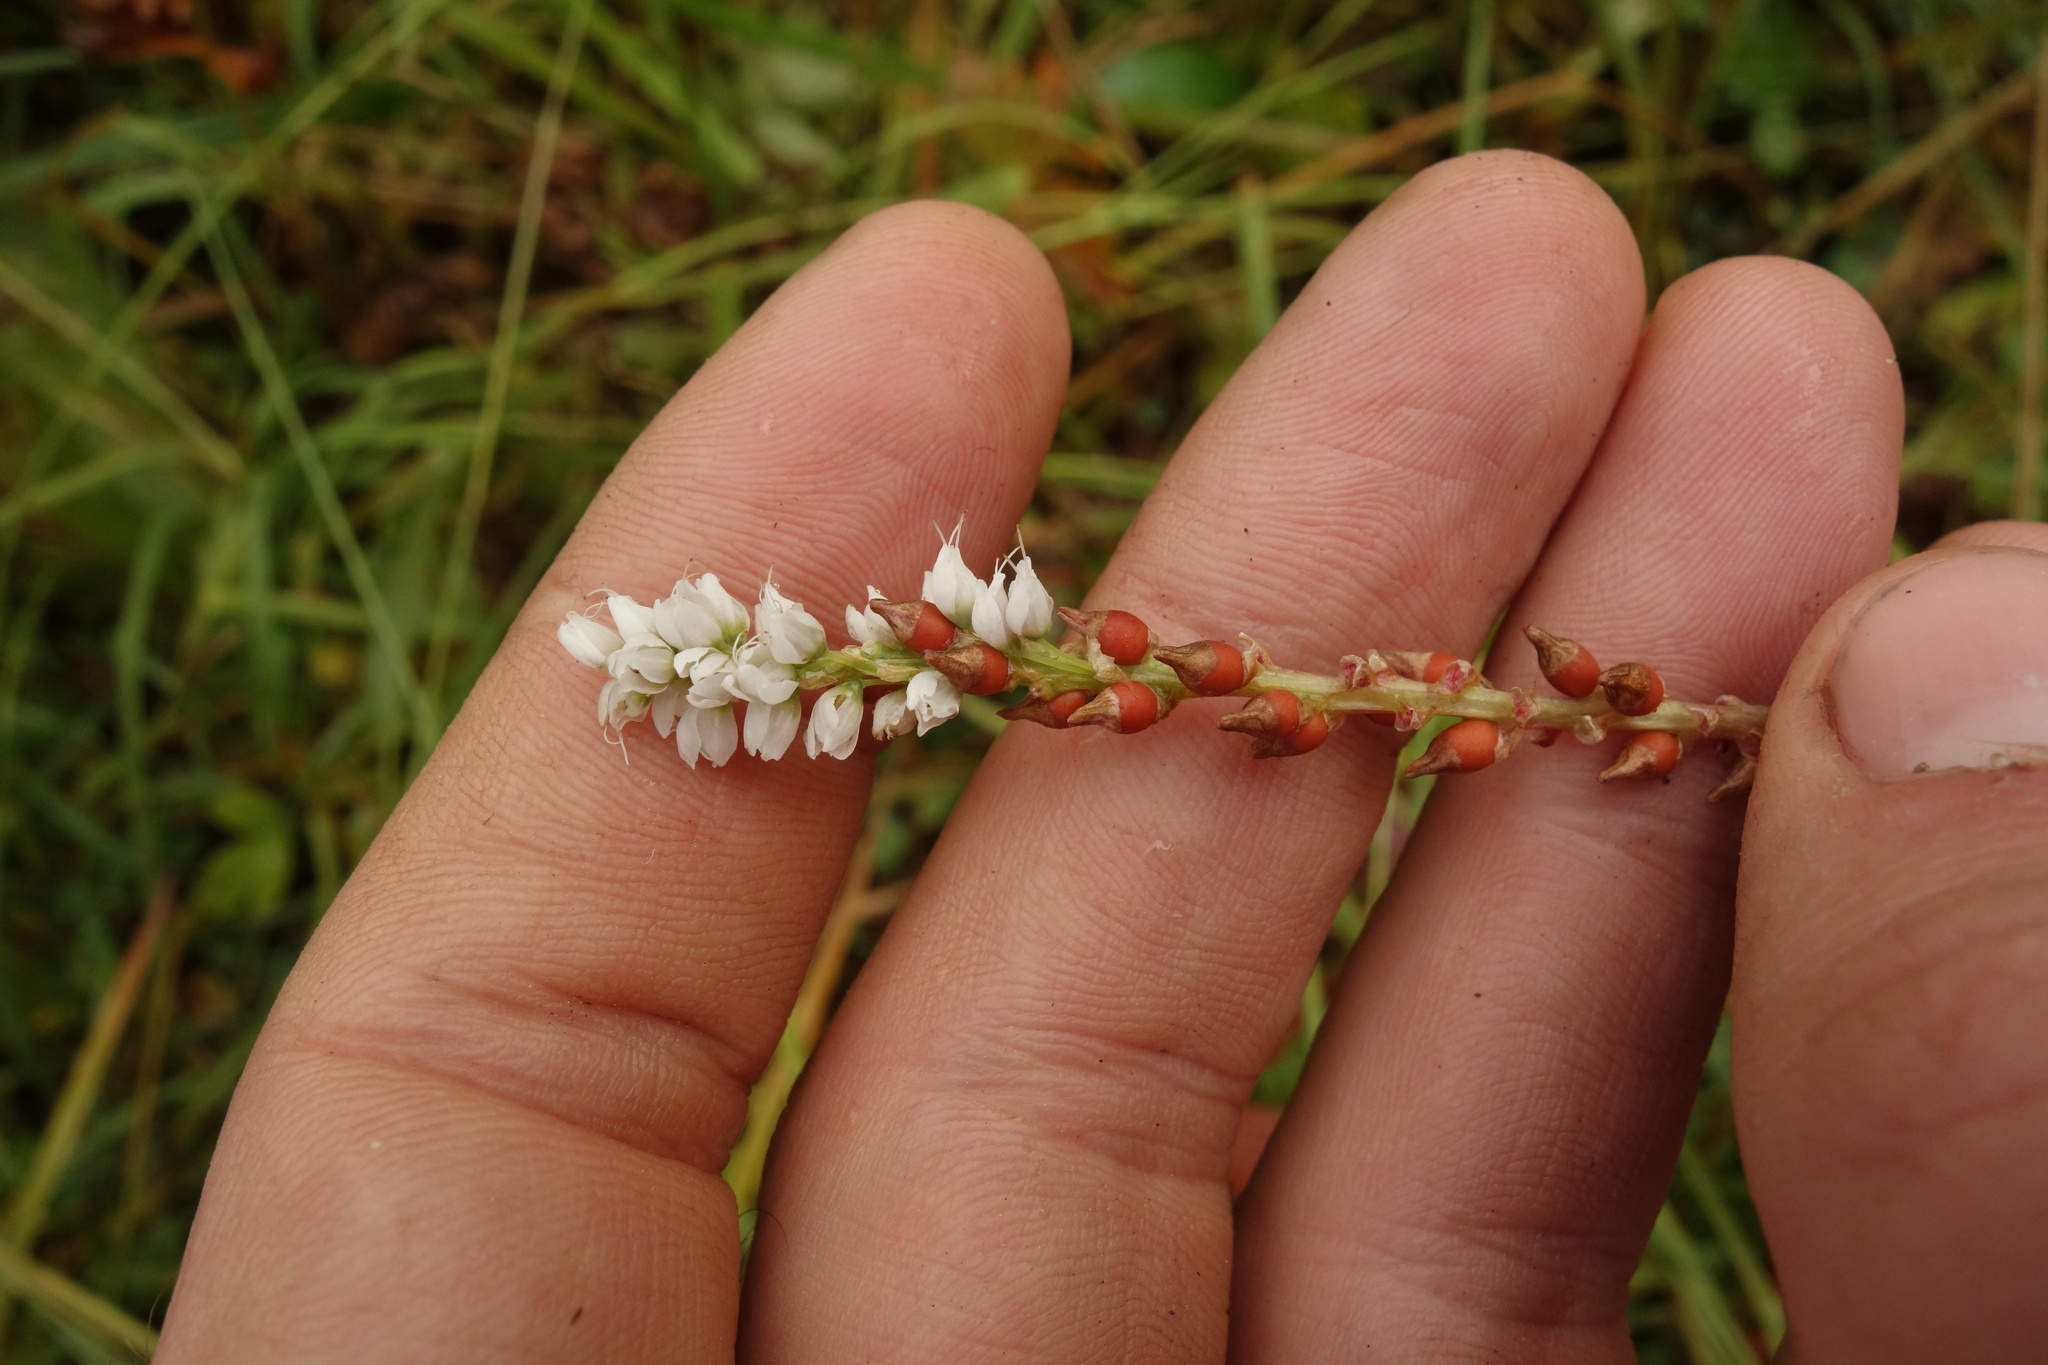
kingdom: Plantae
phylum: Tracheophyta
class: Magnoliopsida
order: Caryophyllales
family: Polygonaceae
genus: Bistorta
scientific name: Bistorta vivipara
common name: Alpine bistort
